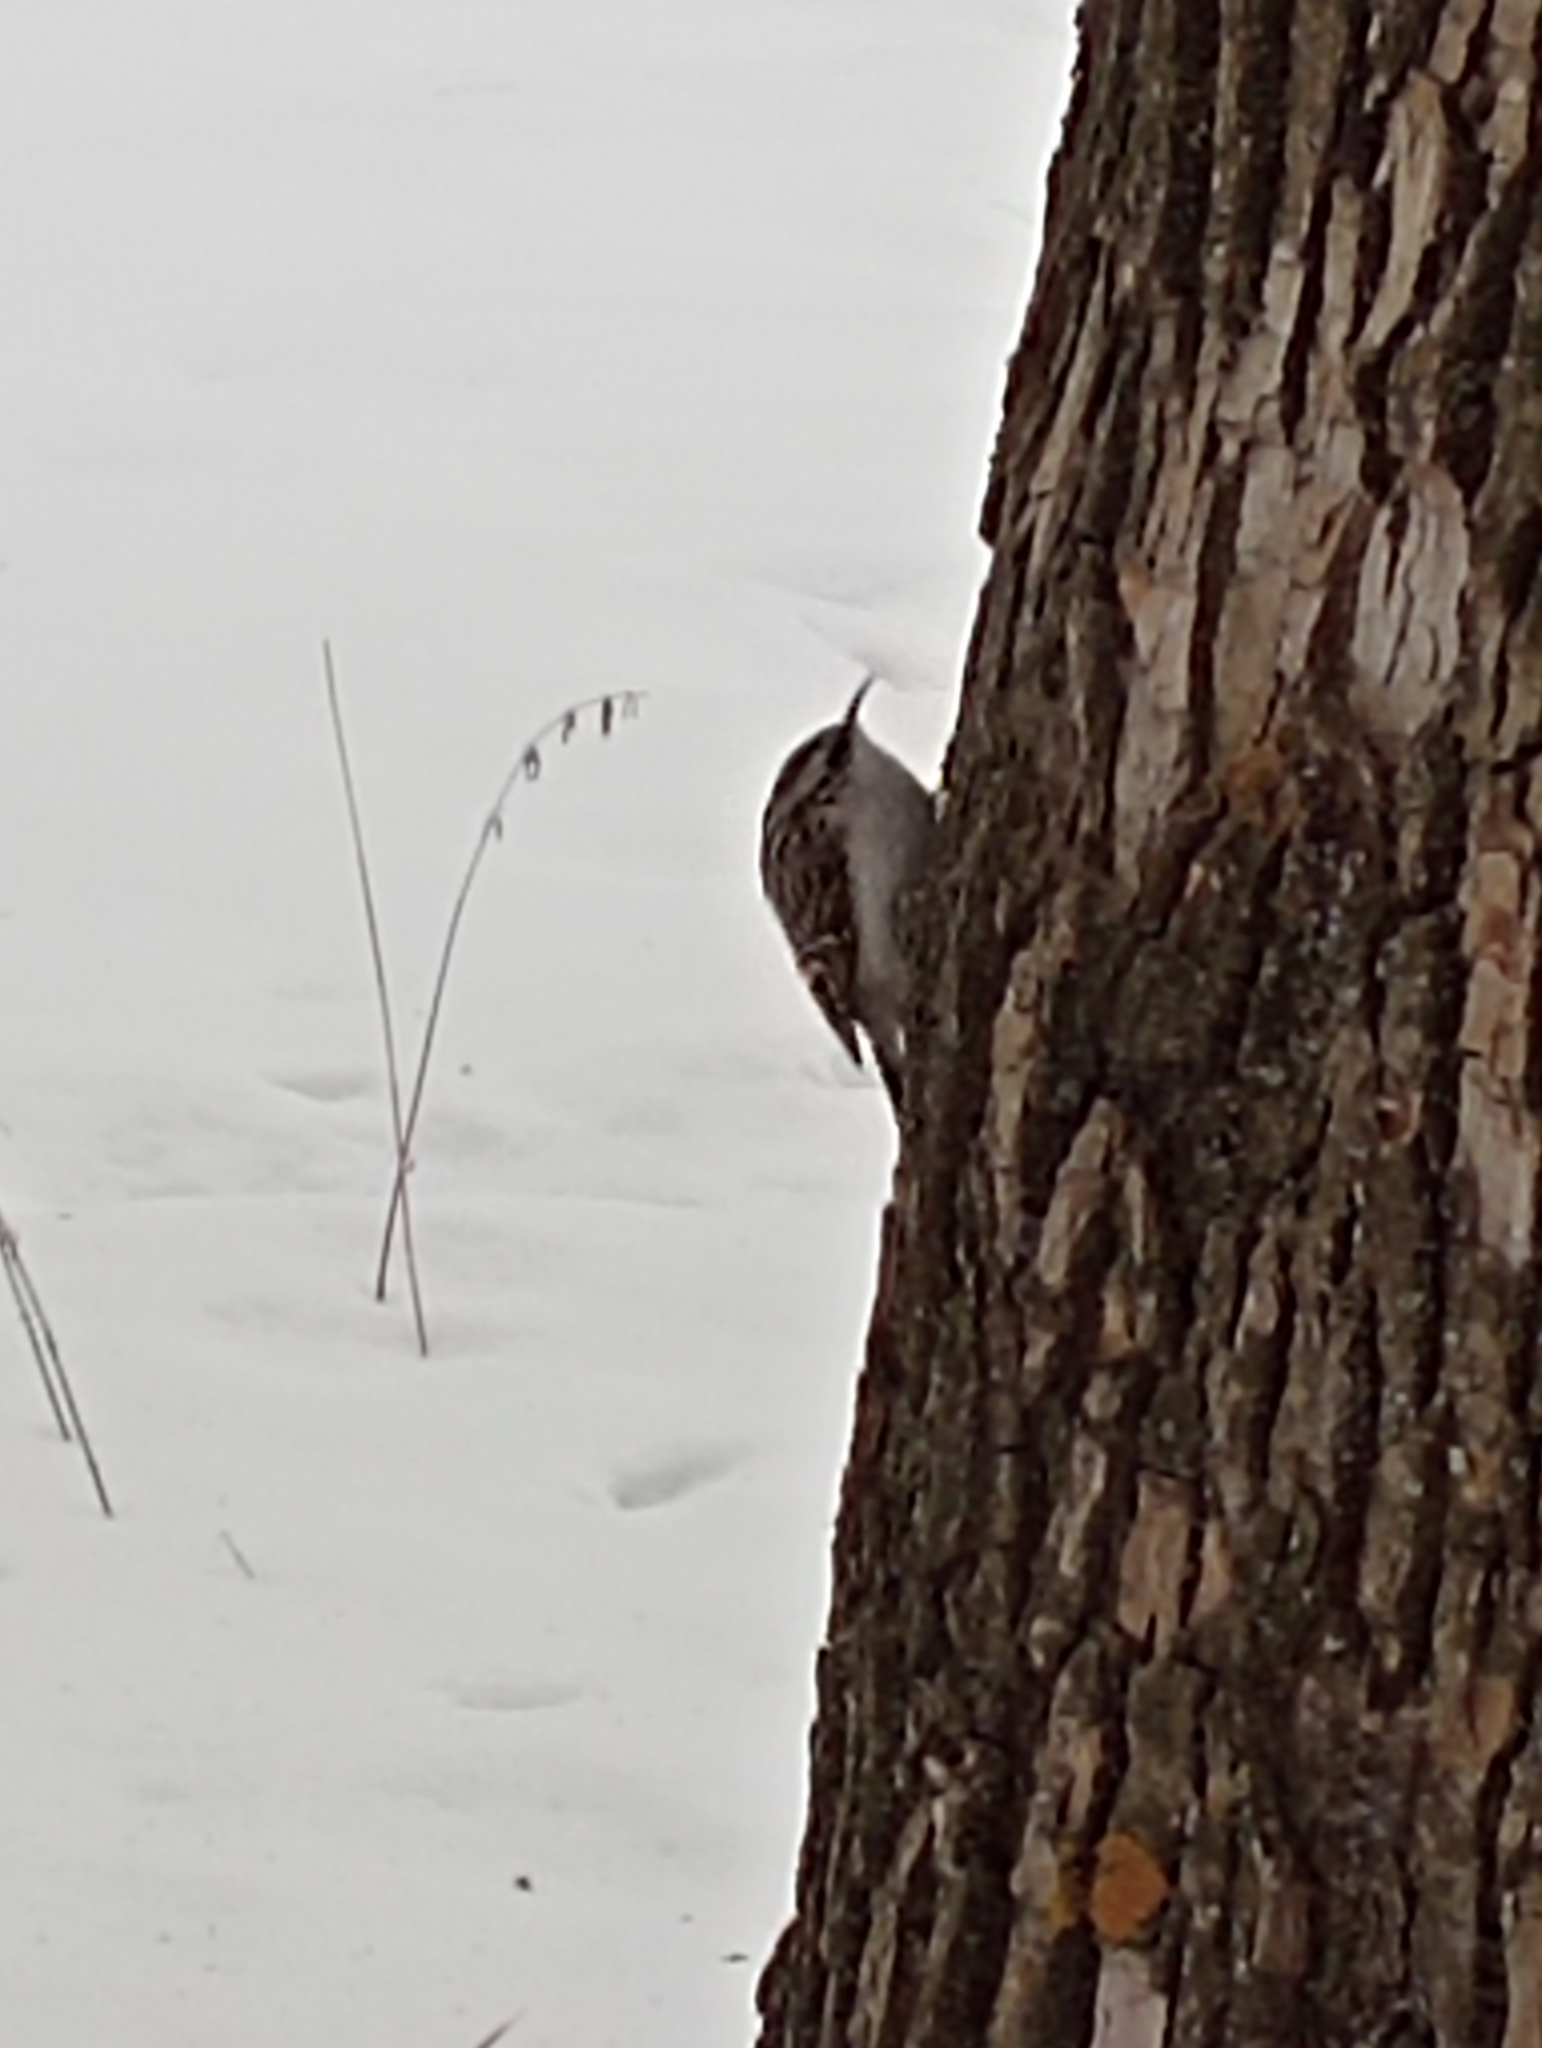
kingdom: Animalia
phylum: Chordata
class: Aves
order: Passeriformes
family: Certhiidae
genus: Certhia
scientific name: Certhia familiaris
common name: Eurasian treecreeper
